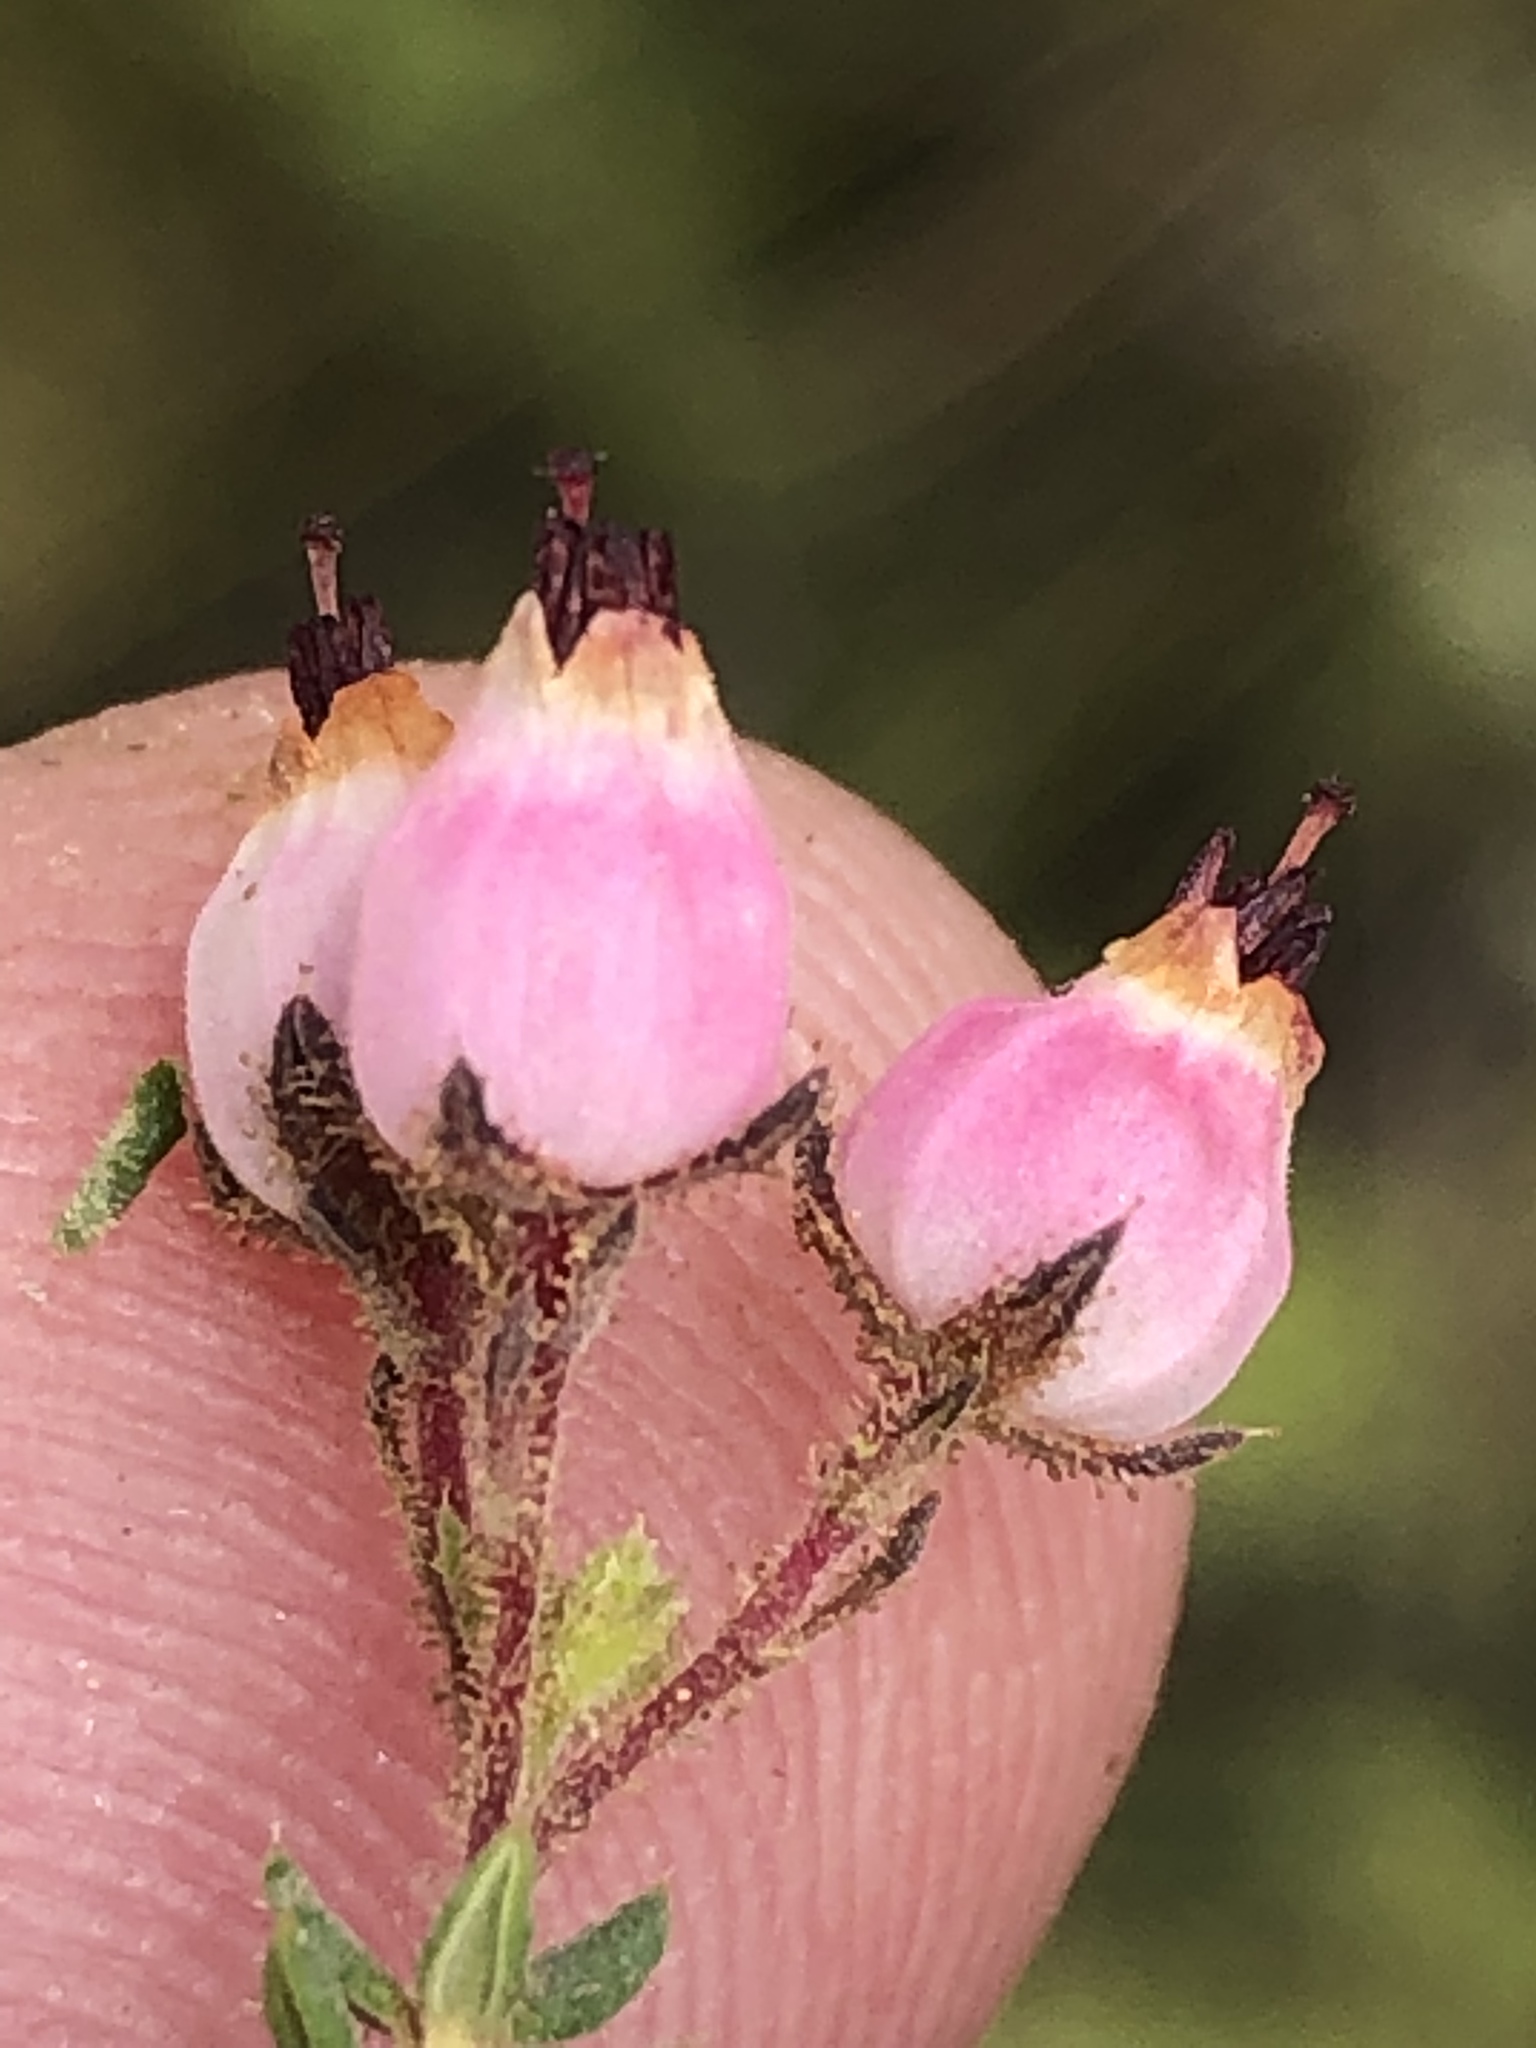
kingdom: Plantae
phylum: Tracheophyta
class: Magnoliopsida
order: Ericales
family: Ericaceae
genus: Erica
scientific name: Erica hirta
